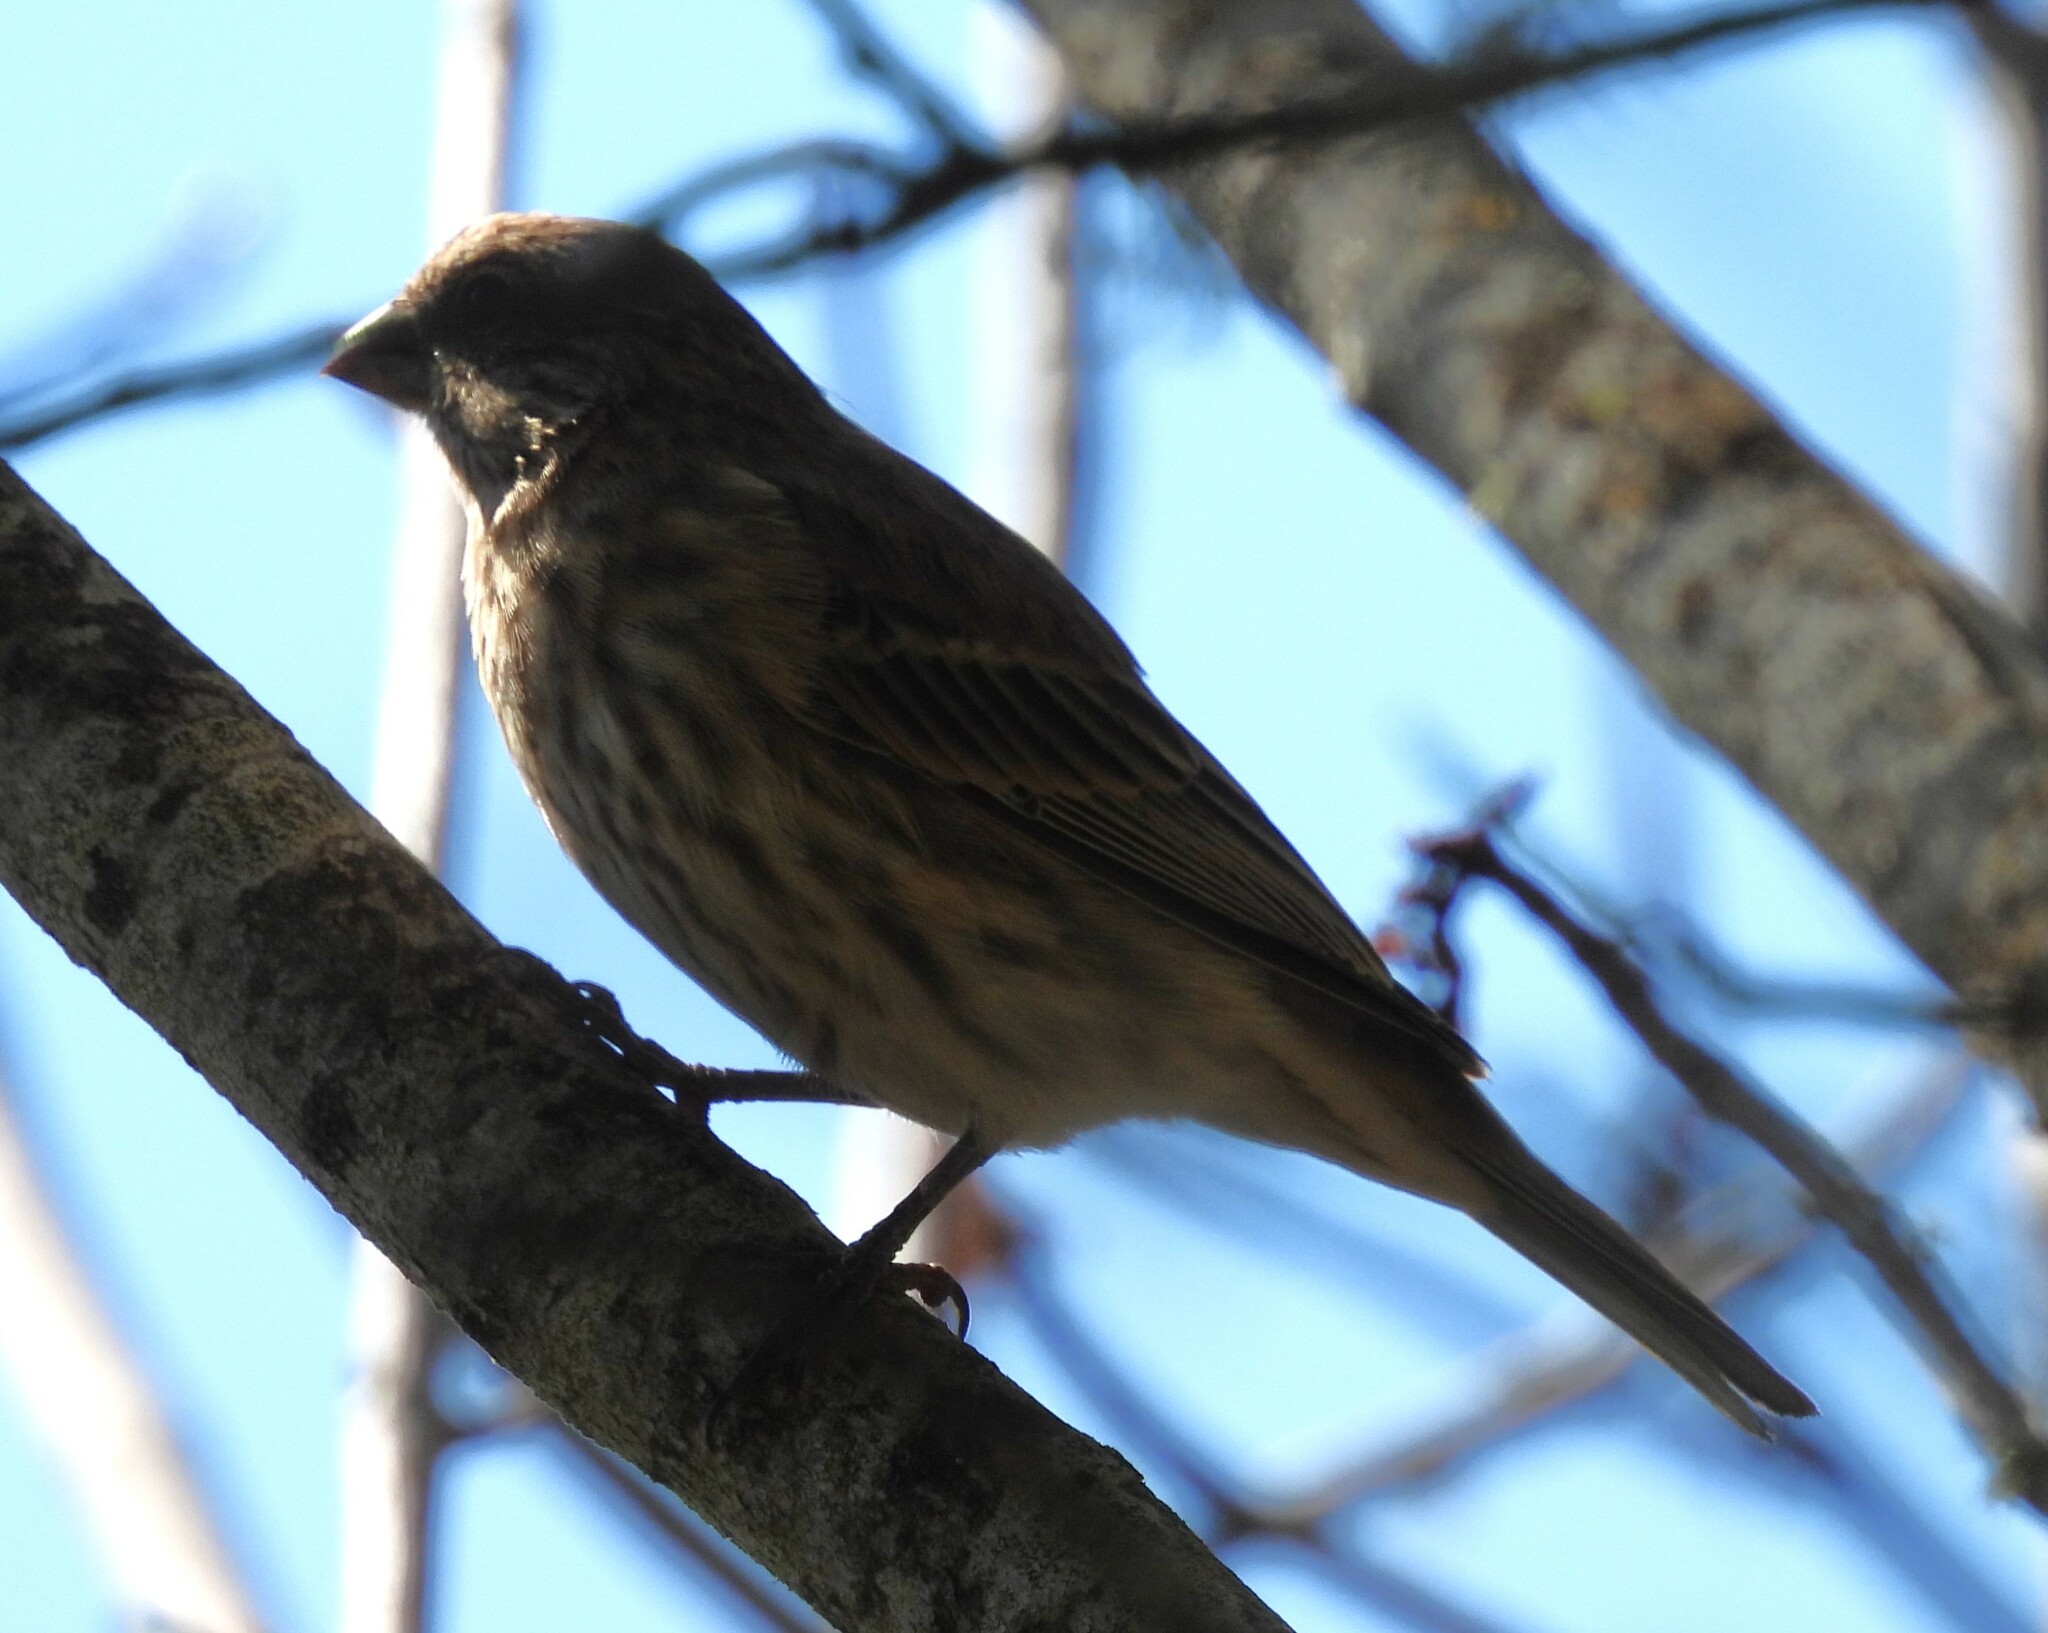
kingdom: Animalia
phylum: Chordata
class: Aves
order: Passeriformes
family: Fringillidae
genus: Haemorhous
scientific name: Haemorhous mexicanus
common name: House finch
